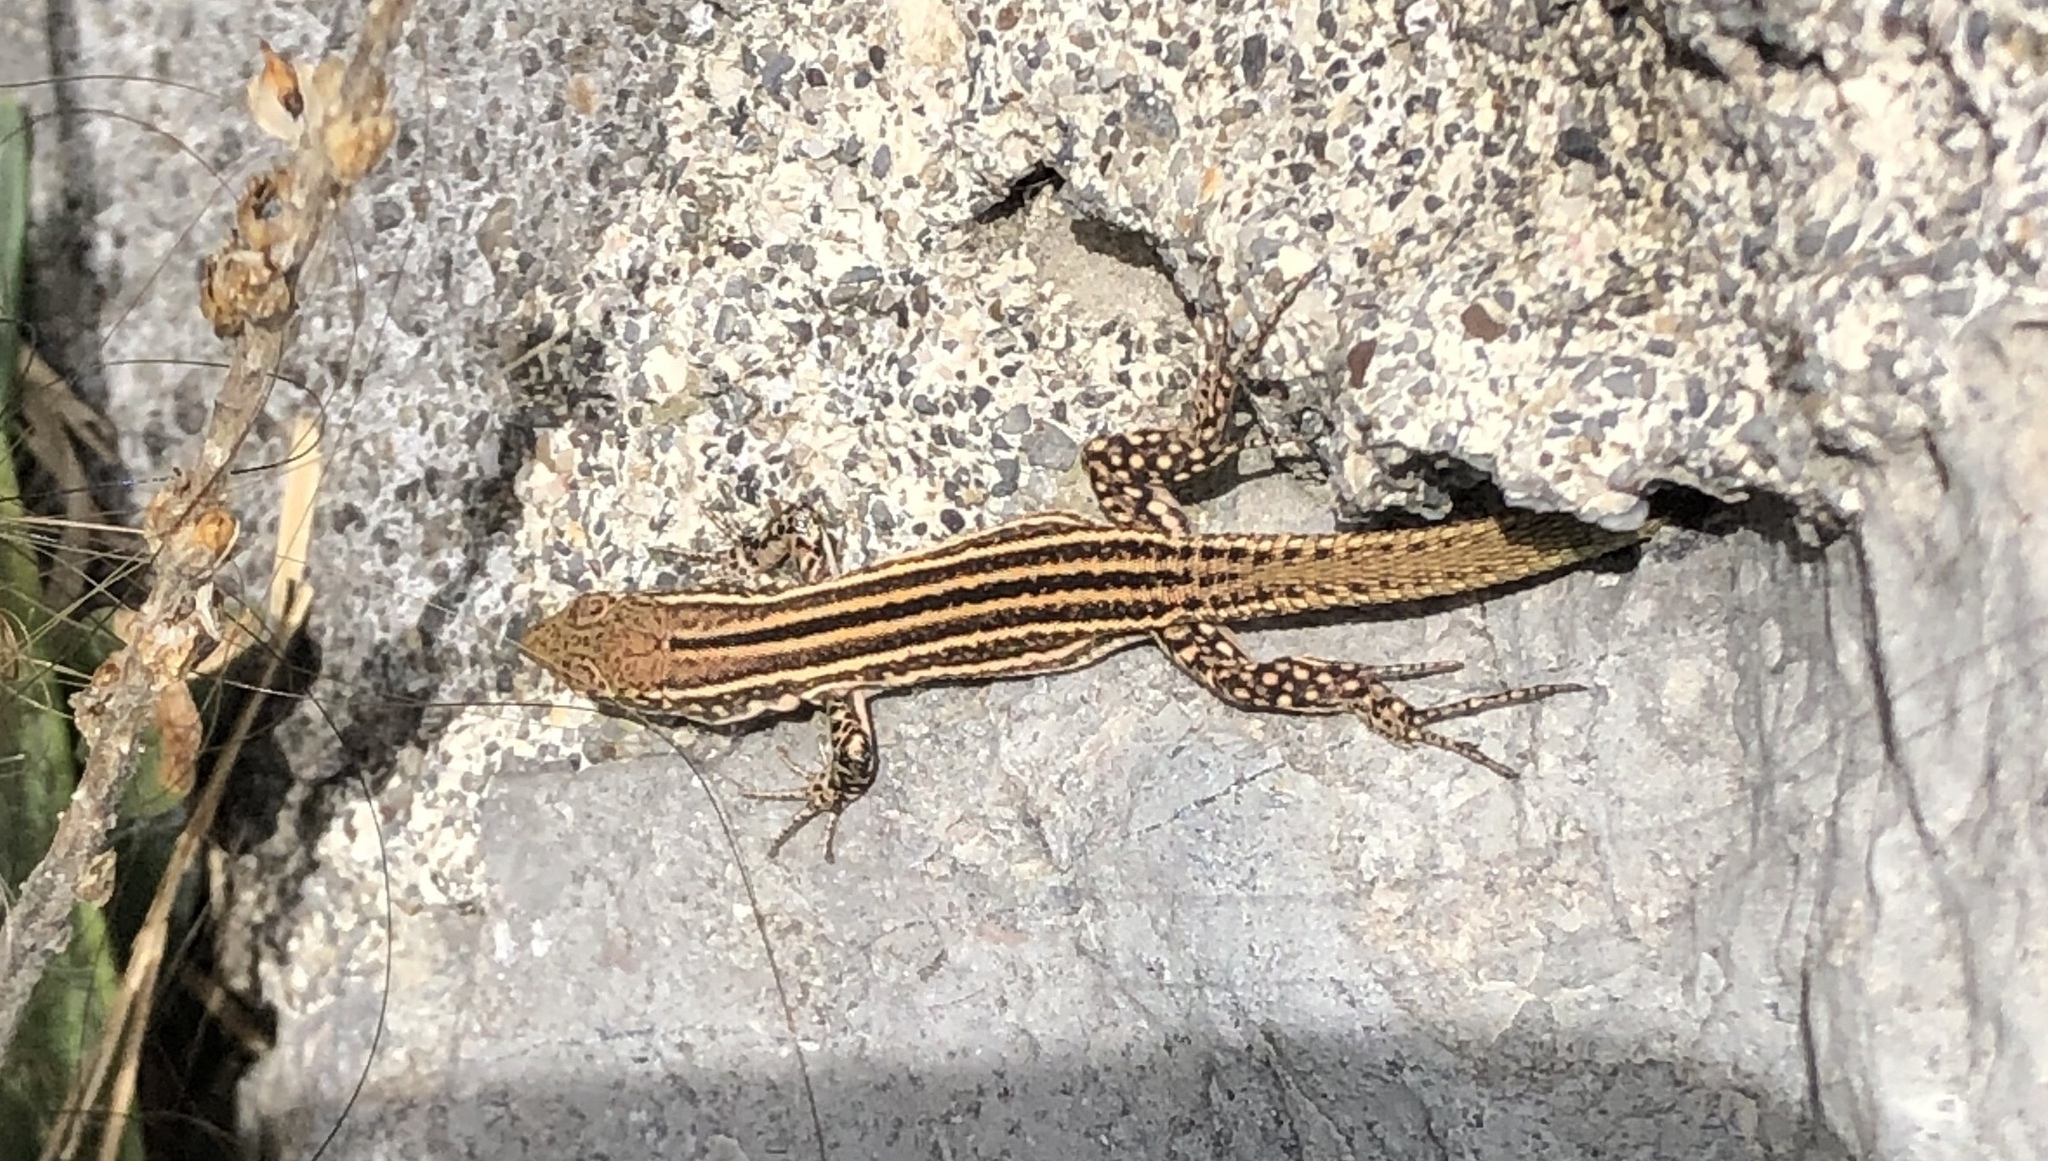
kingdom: Animalia
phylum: Chordata
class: Squamata
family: Lacertidae
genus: Podarcis
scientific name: Podarcis pityusensis
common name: Ibiza wall lizard
